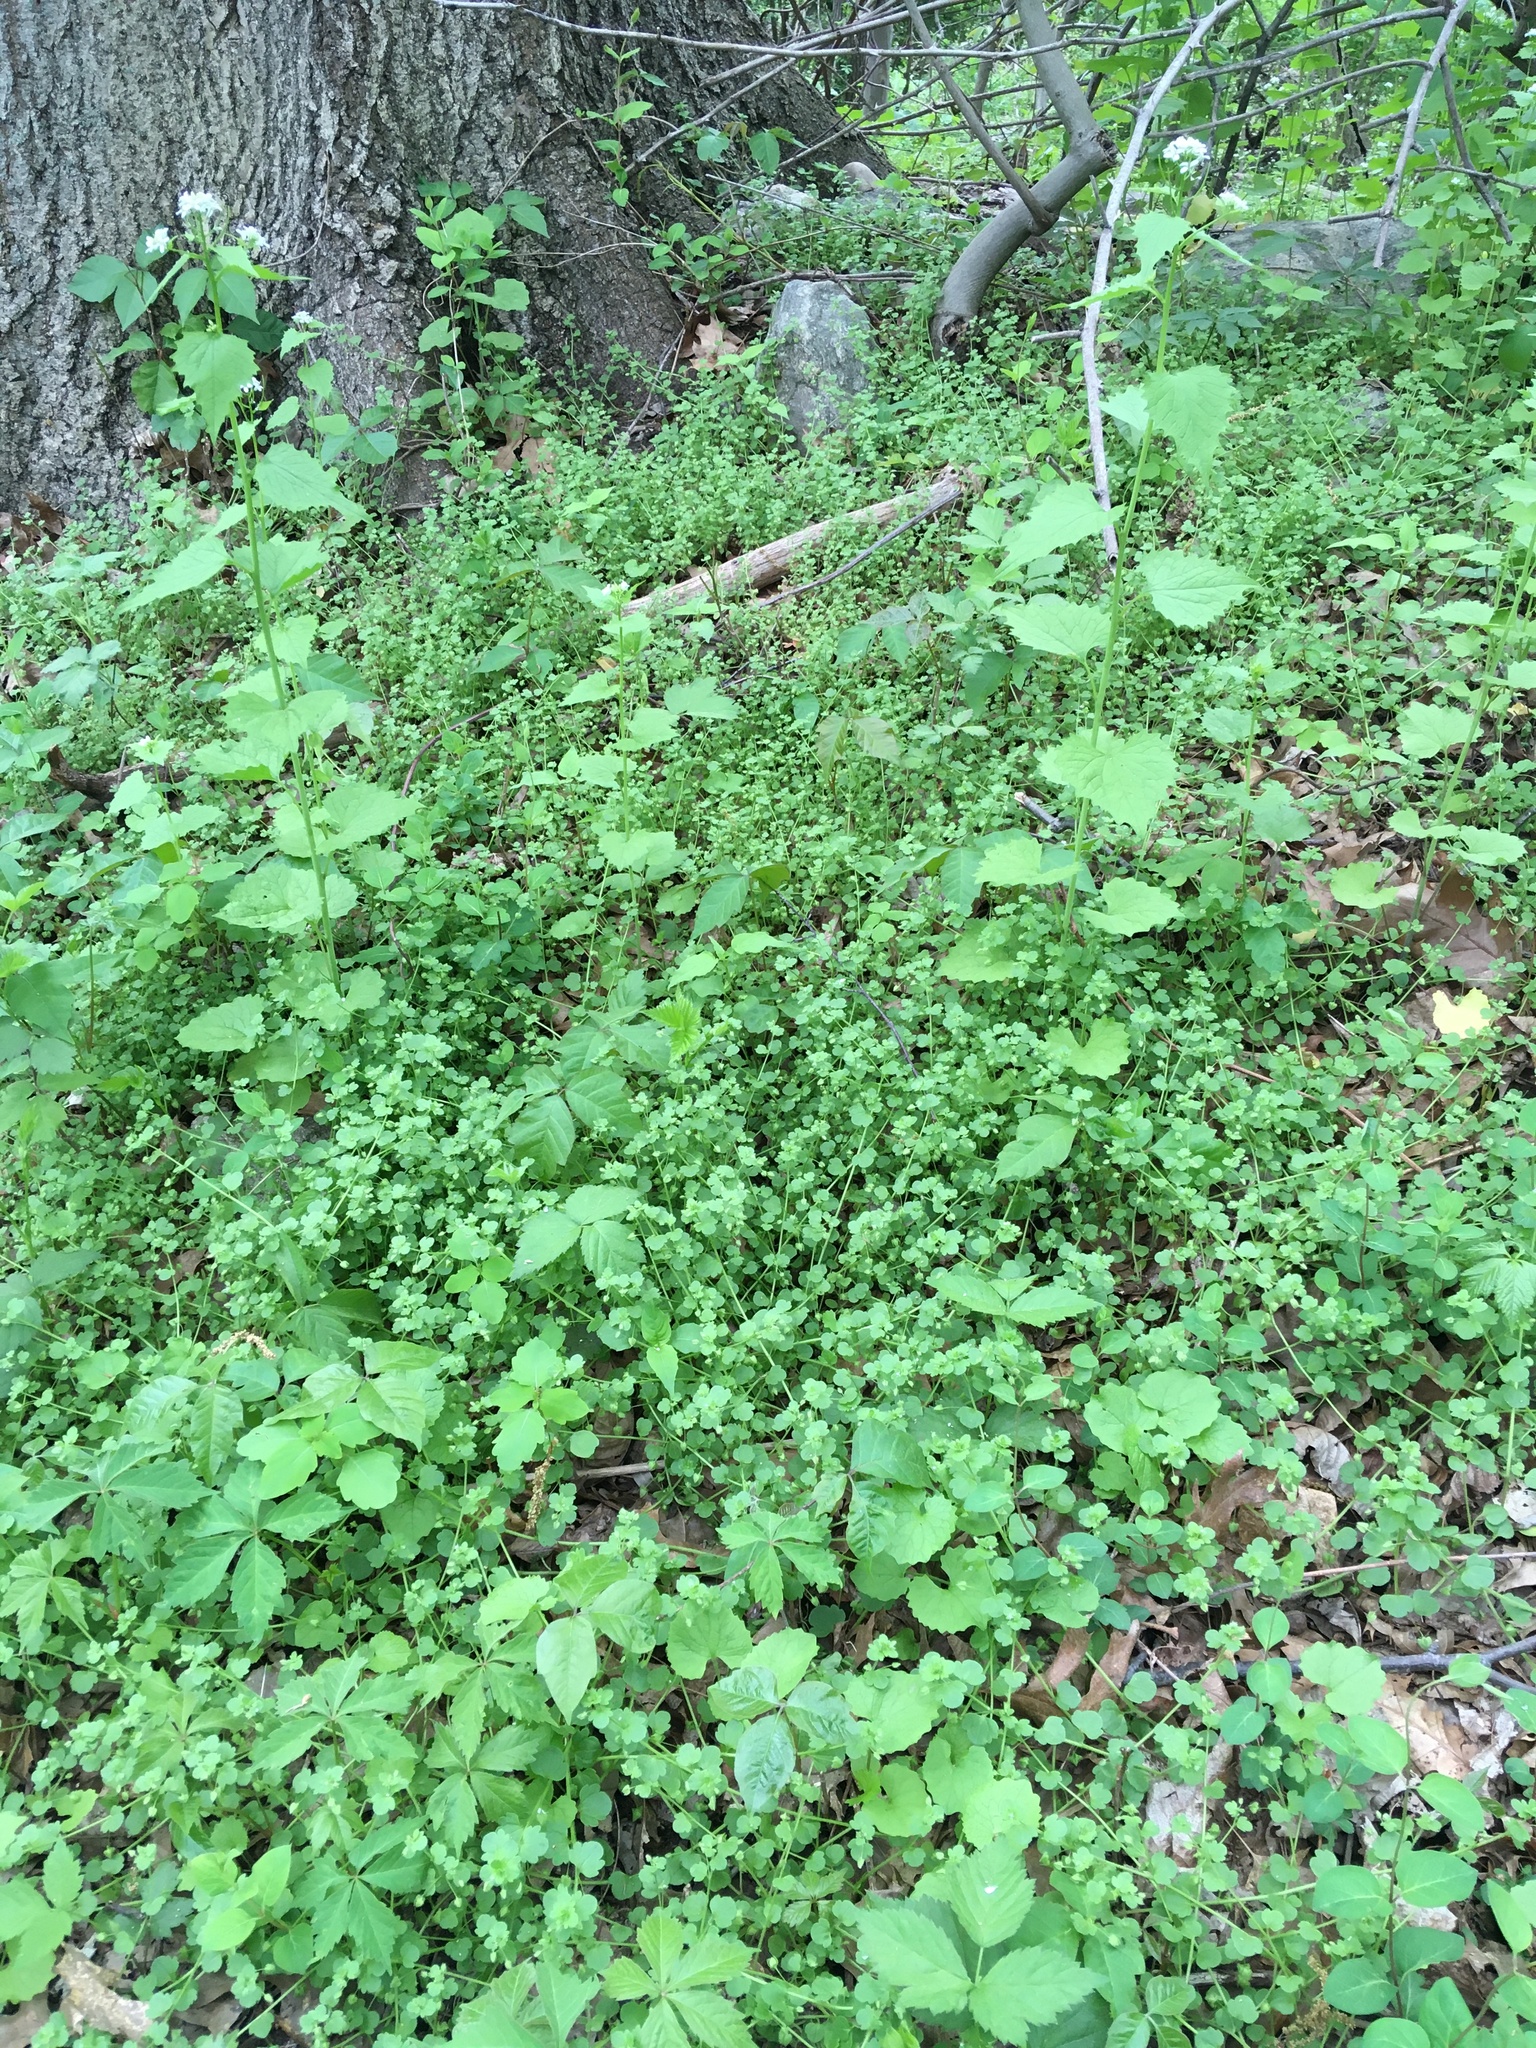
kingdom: Plantae
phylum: Tracheophyta
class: Magnoliopsida
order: Lamiales
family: Plantaginaceae
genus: Veronica
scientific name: Veronica hederifolia
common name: Ivy-leaved speedwell
